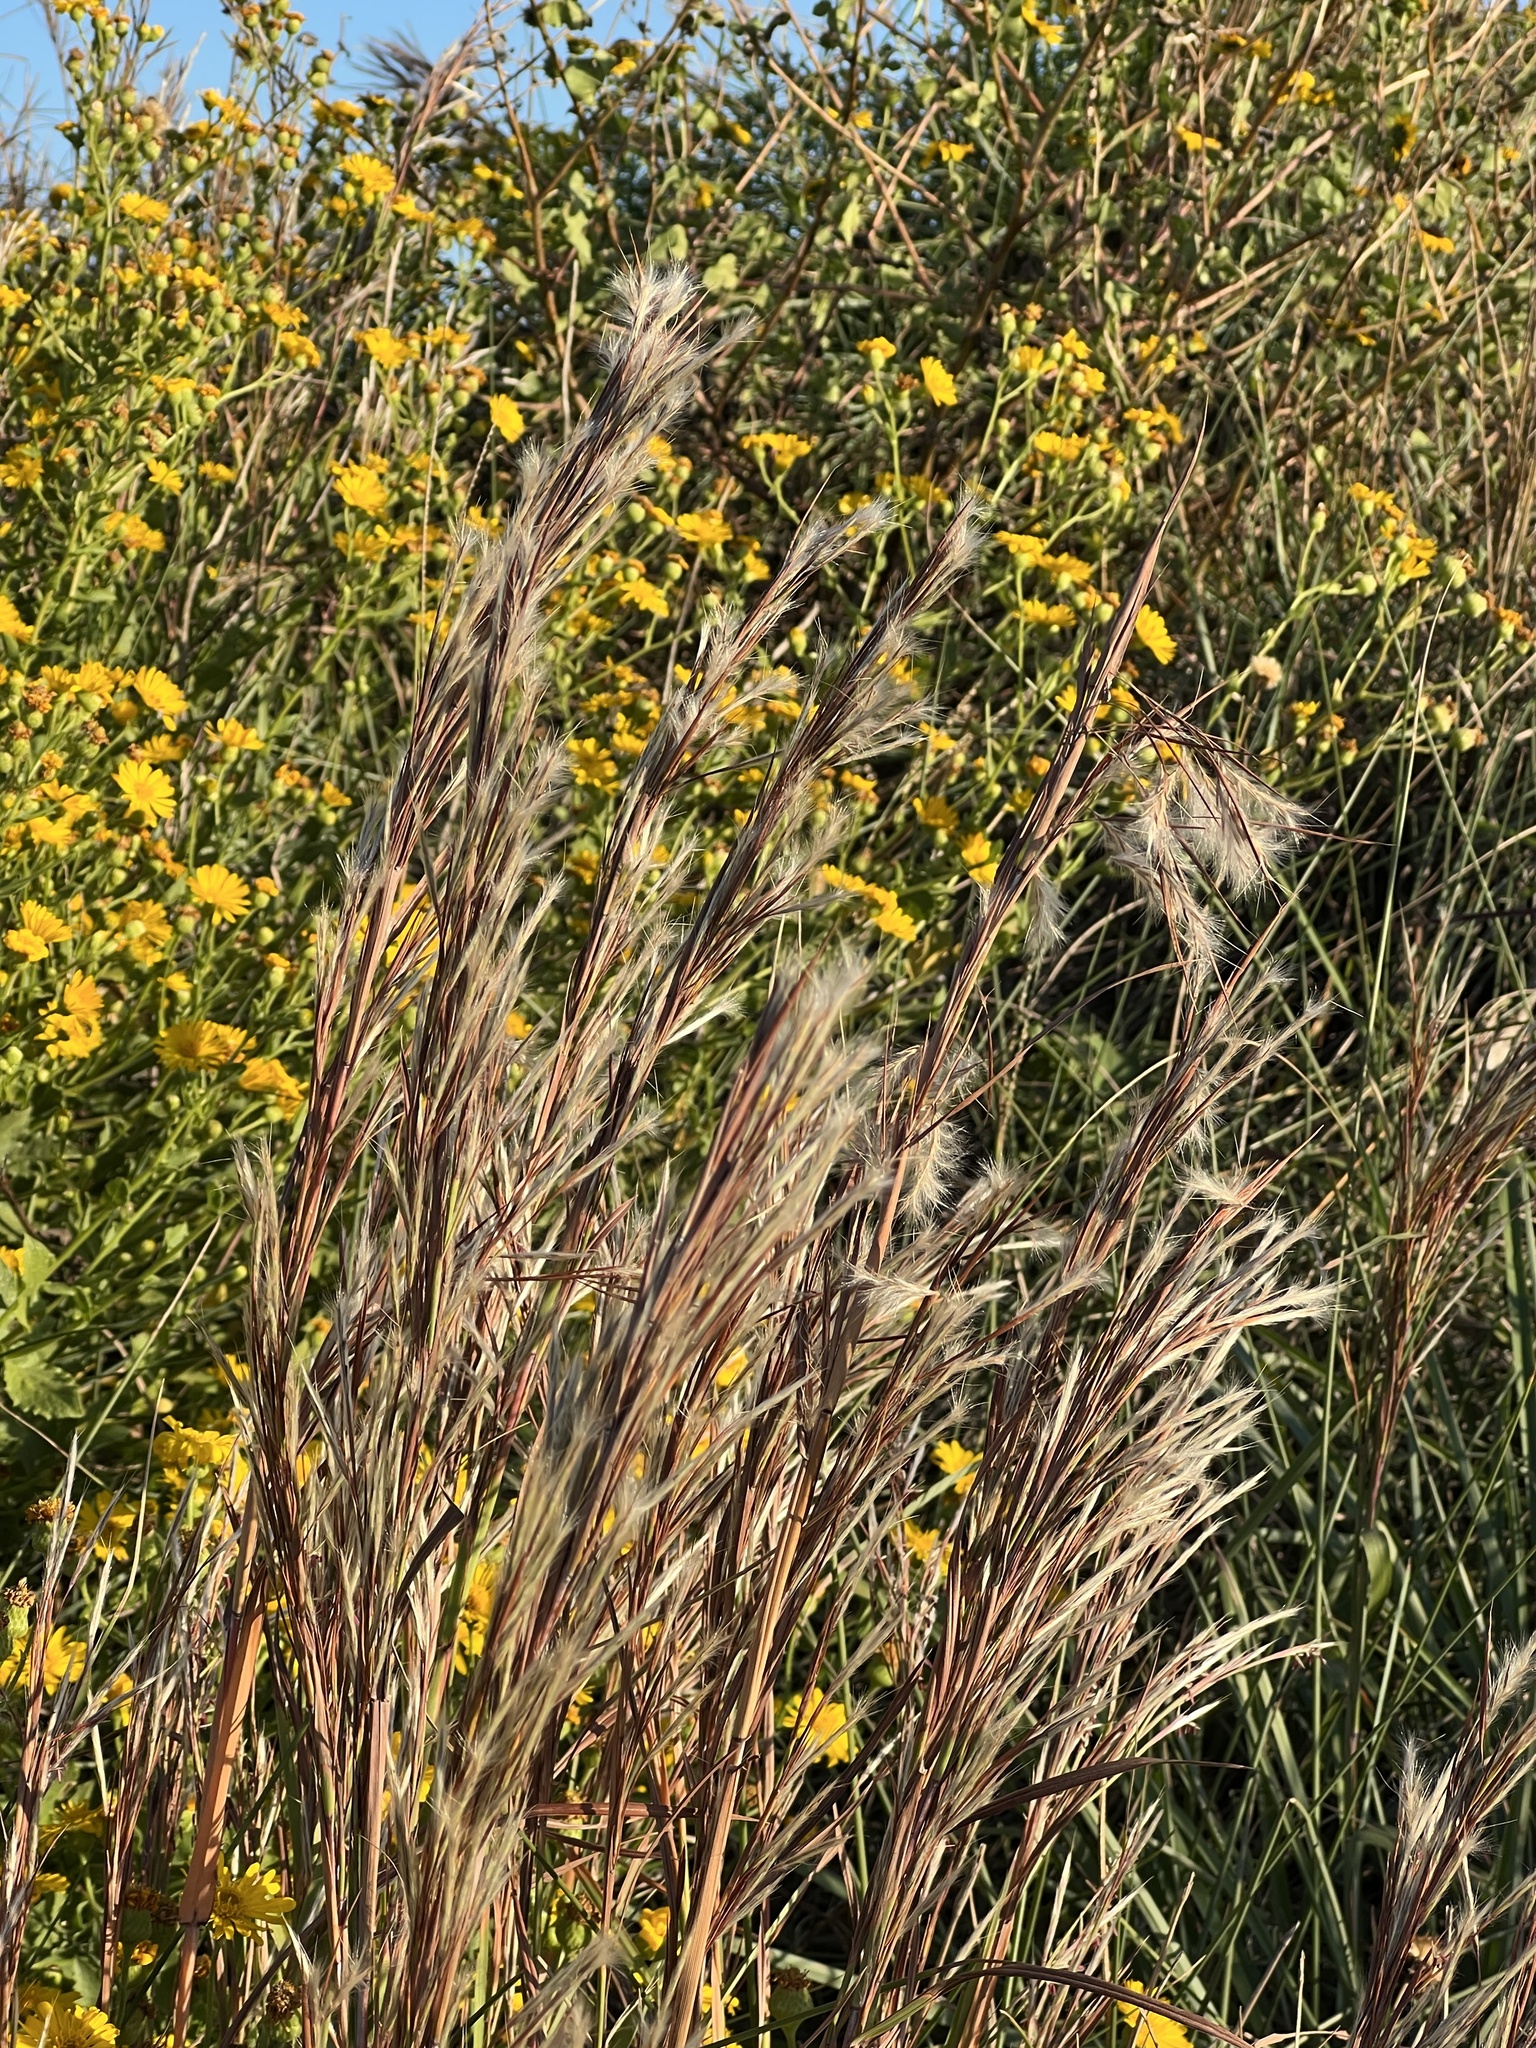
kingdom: Plantae
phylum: Tracheophyta
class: Liliopsida
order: Poales
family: Poaceae
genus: Schizachyrium
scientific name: Schizachyrium scoparium
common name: Little bluestem
